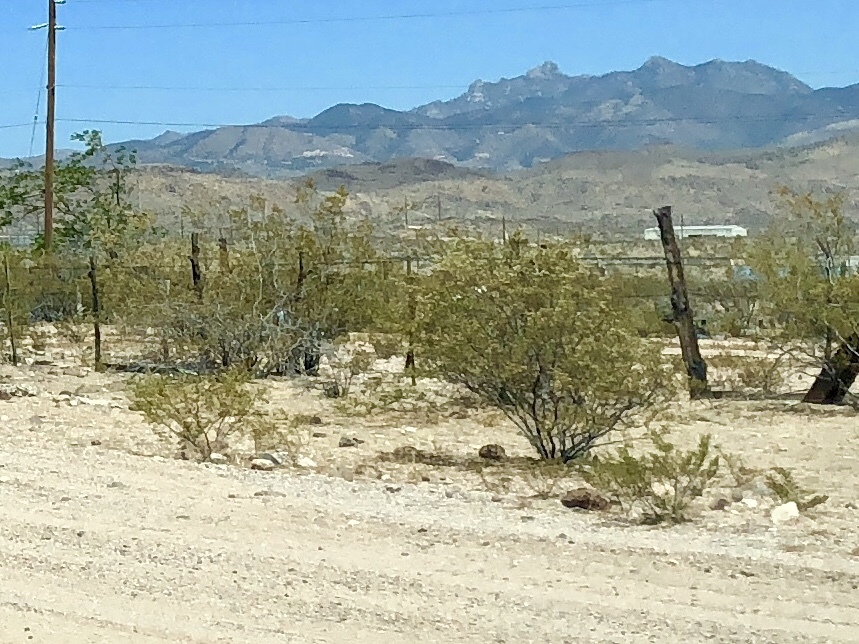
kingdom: Plantae
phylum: Tracheophyta
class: Magnoliopsida
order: Zygophyllales
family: Zygophyllaceae
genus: Larrea
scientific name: Larrea tridentata
